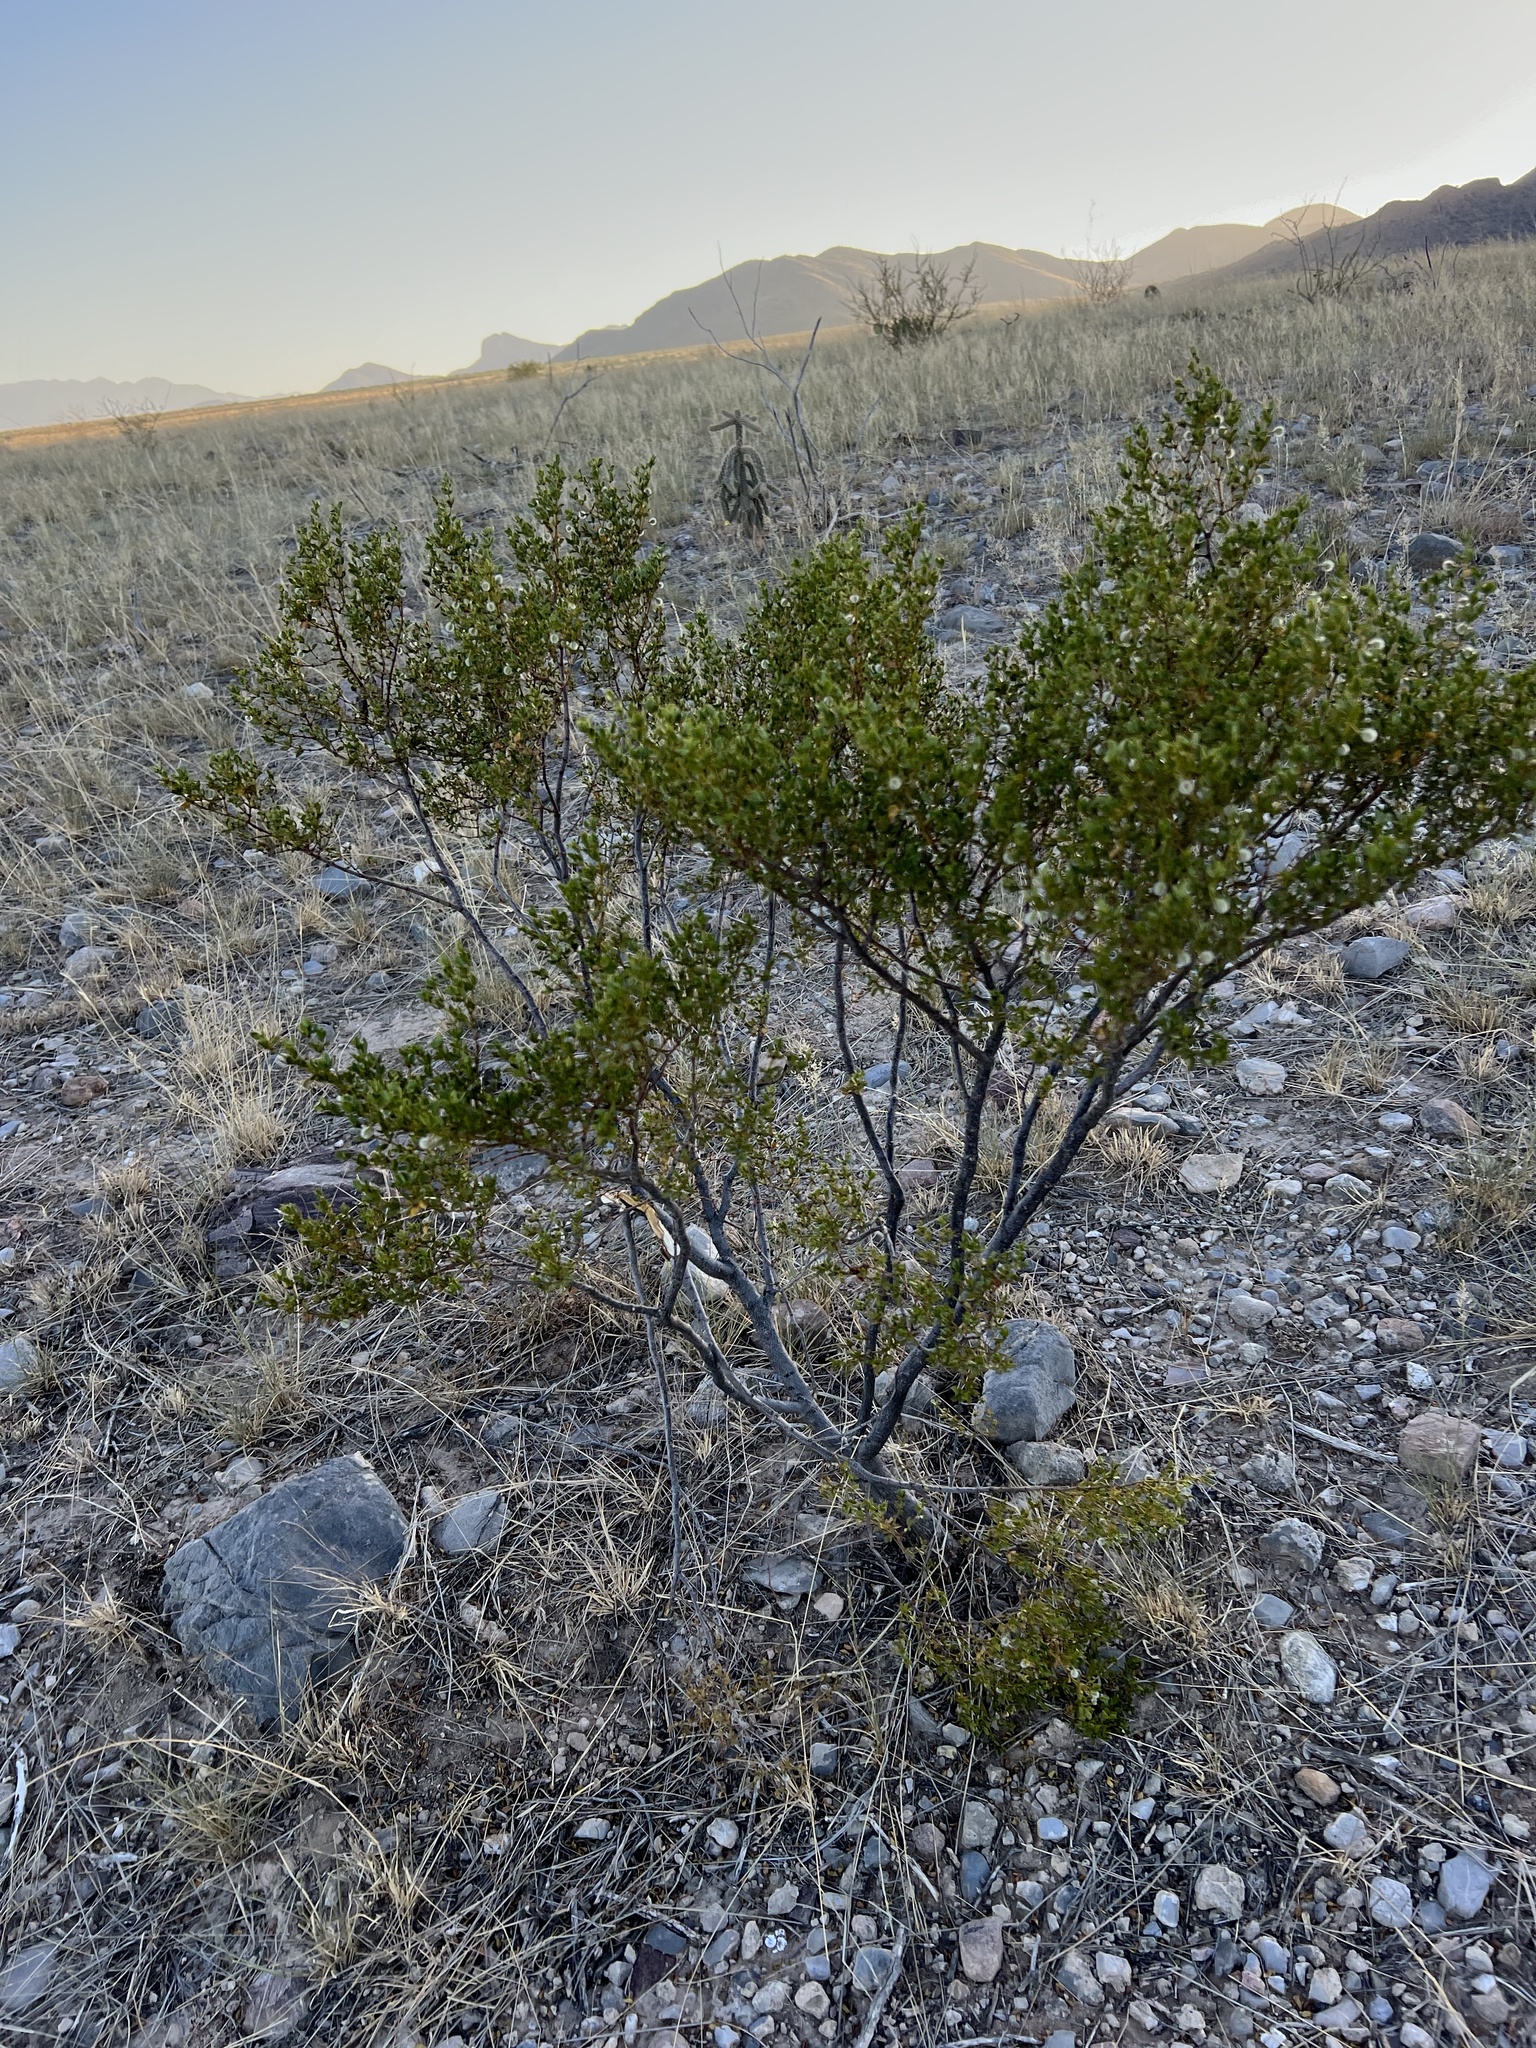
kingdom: Plantae
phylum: Tracheophyta
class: Magnoliopsida
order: Zygophyllales
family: Zygophyllaceae
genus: Larrea
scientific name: Larrea tridentata
